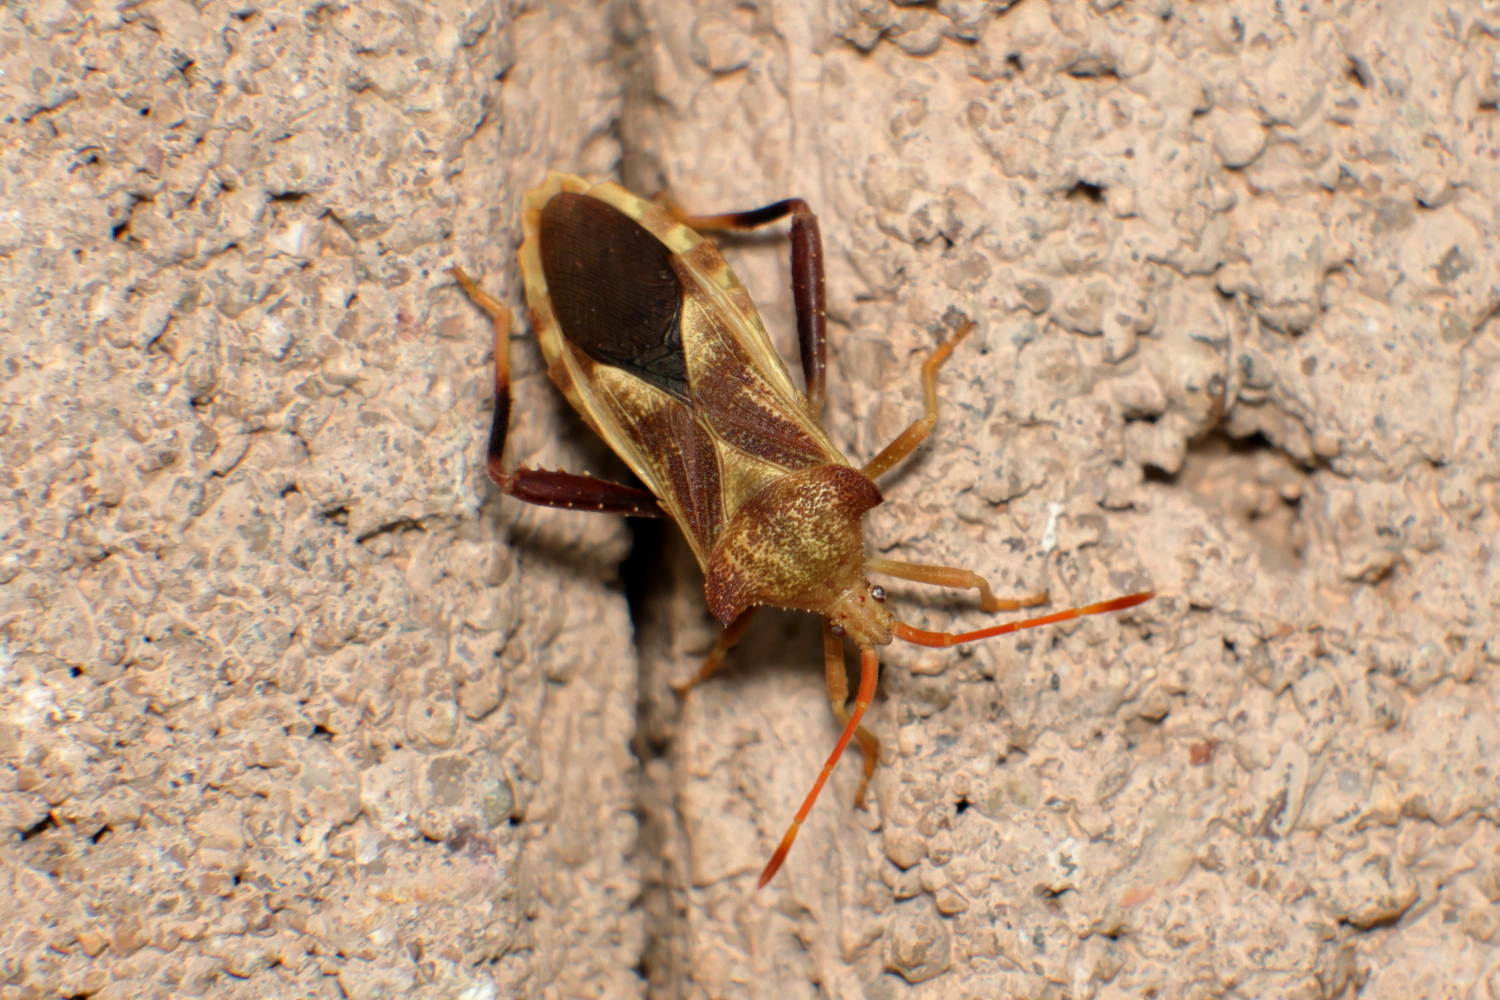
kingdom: Animalia
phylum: Arthropoda
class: Insecta
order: Hemiptera
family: Coreidae
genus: Mozena
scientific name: Mozena arizonensis
